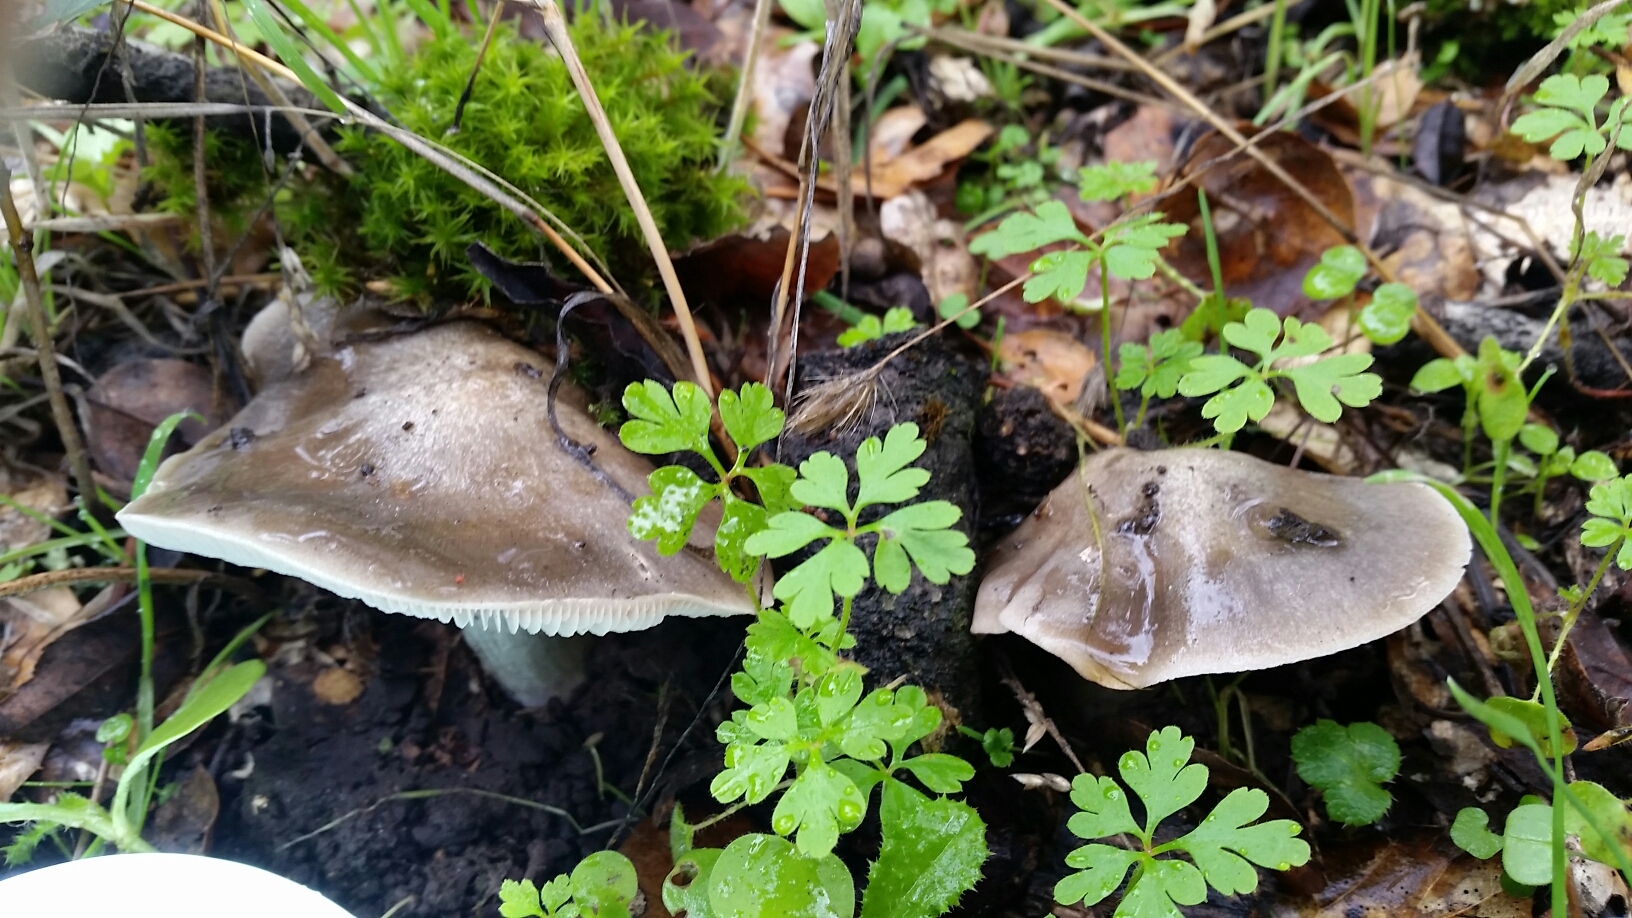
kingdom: Fungi
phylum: Basidiomycota
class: Agaricomycetes
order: Agaricales
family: Tricholomataceae
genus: Tricholoma
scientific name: Tricholoma terreum
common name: Grey knight
